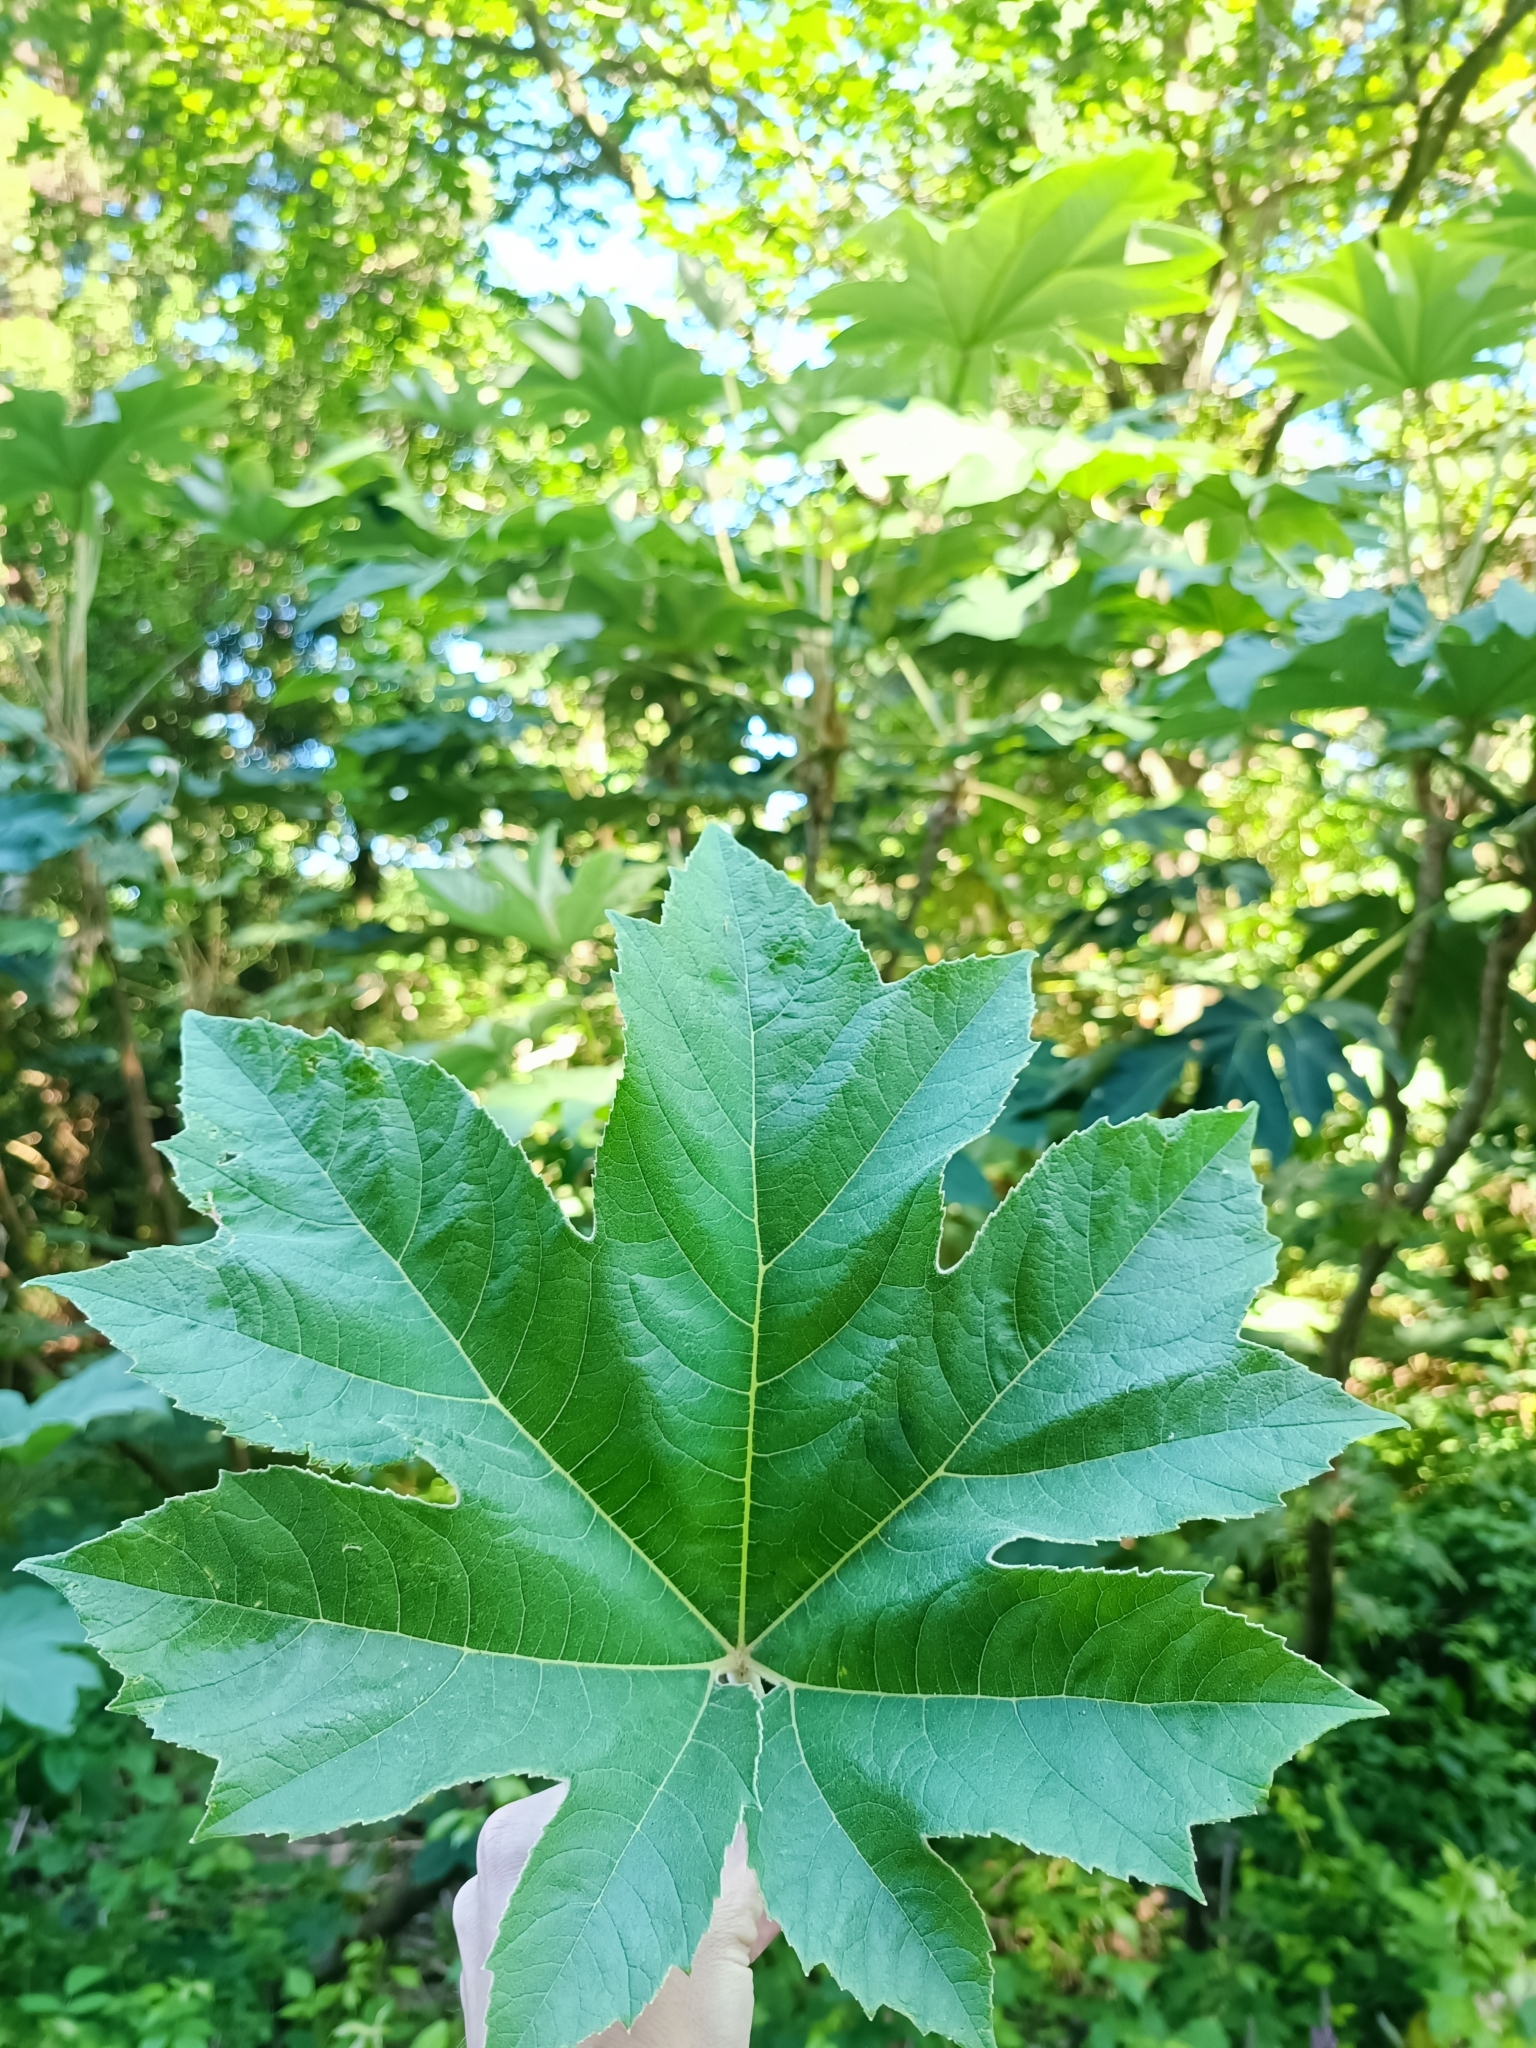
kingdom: Plantae
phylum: Tracheophyta
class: Magnoliopsida
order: Apiales
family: Araliaceae
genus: Tetrapanax
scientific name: Tetrapanax papyrifer
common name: Rice-paper plant
